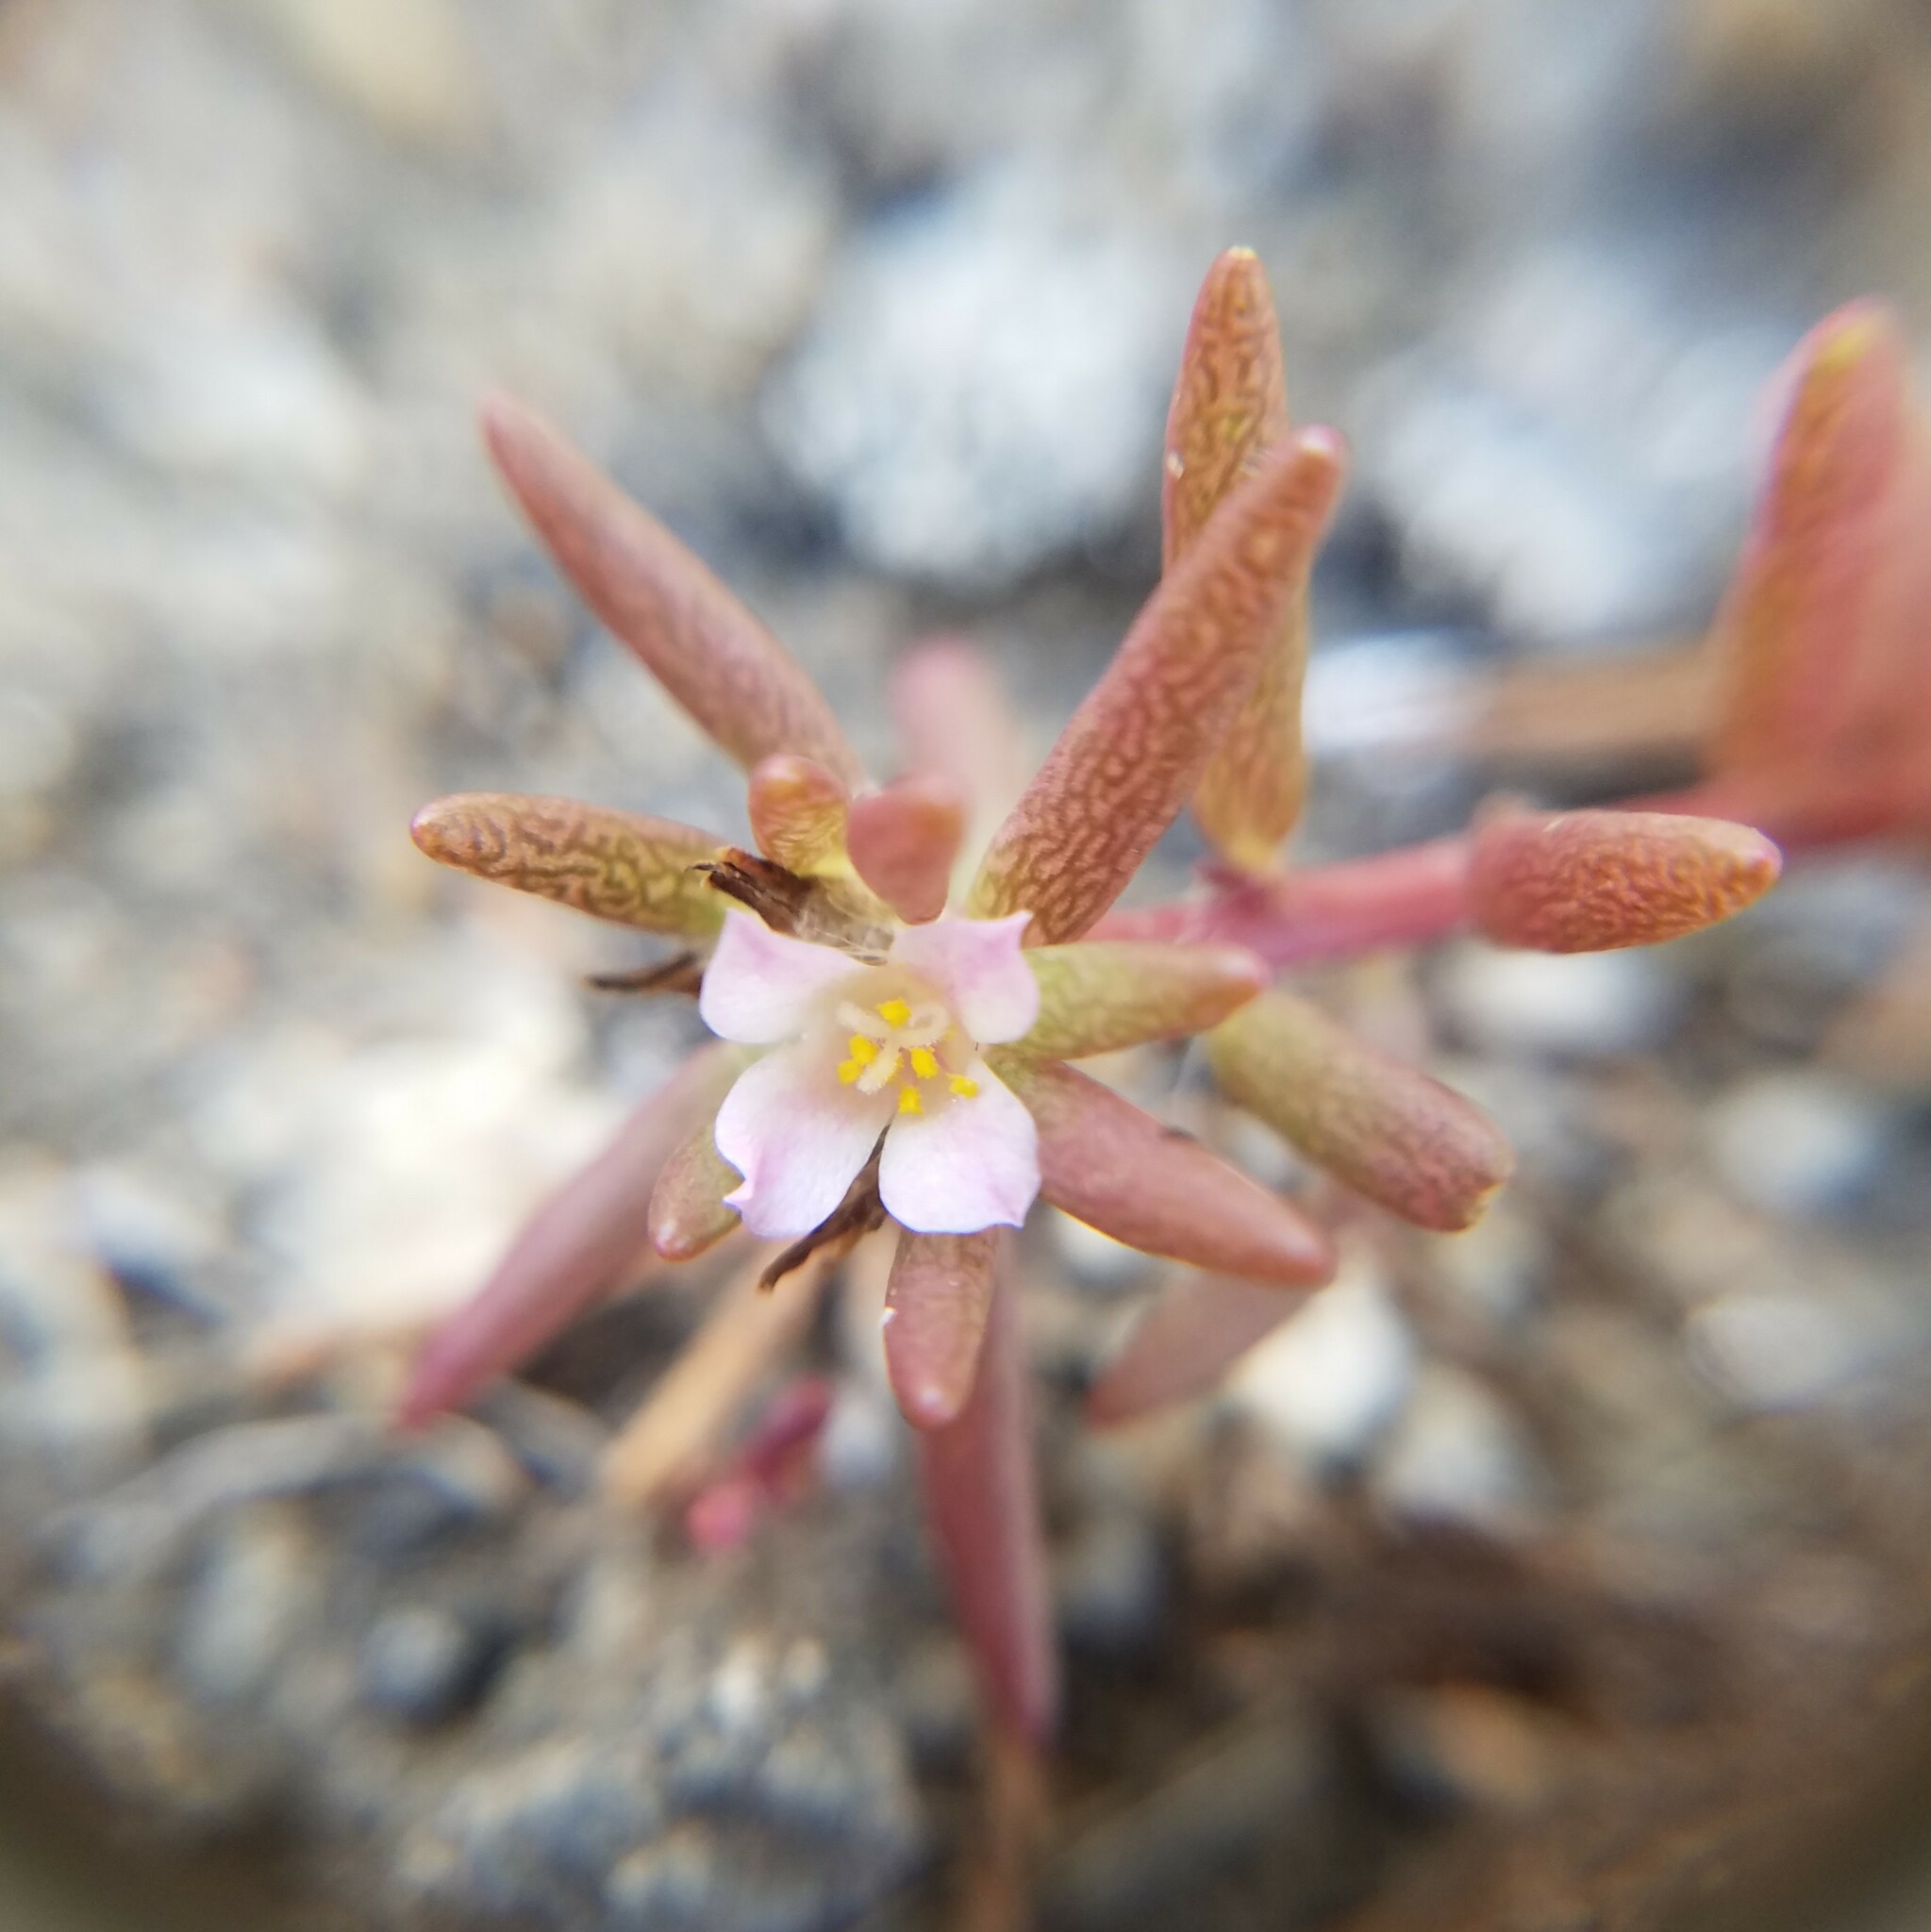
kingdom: Plantae
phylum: Tracheophyta
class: Magnoliopsida
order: Caryophyllales
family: Portulacaceae
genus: Portulaca
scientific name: Portulaca smallii
